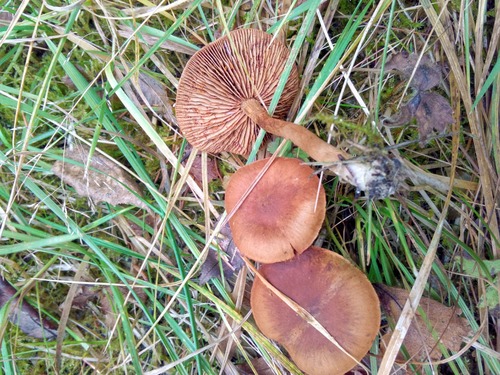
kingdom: Fungi
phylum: Basidiomycota
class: Agaricomycetes
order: Agaricales
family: Cortinariaceae
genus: Cortinarius
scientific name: Cortinarius
